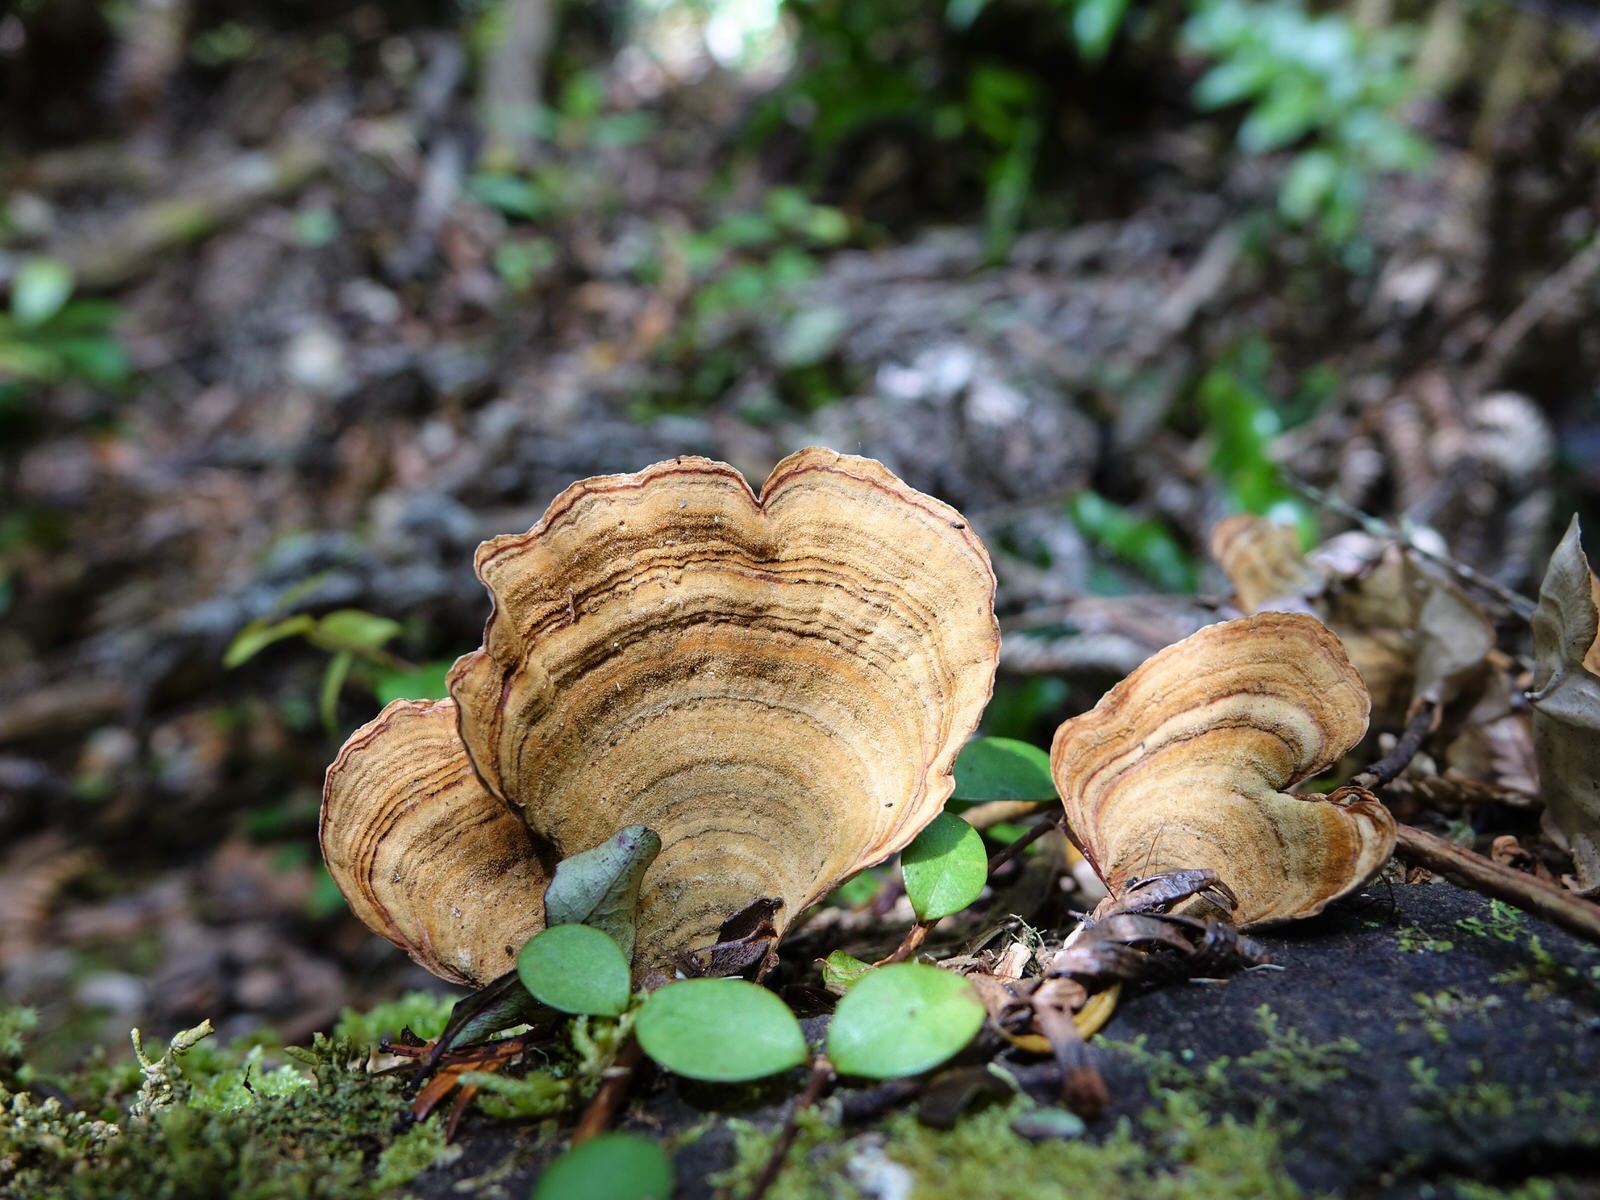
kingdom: Fungi
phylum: Basidiomycota
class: Agaricomycetes
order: Russulales
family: Stereaceae
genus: Stereum
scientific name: Stereum versicolor
